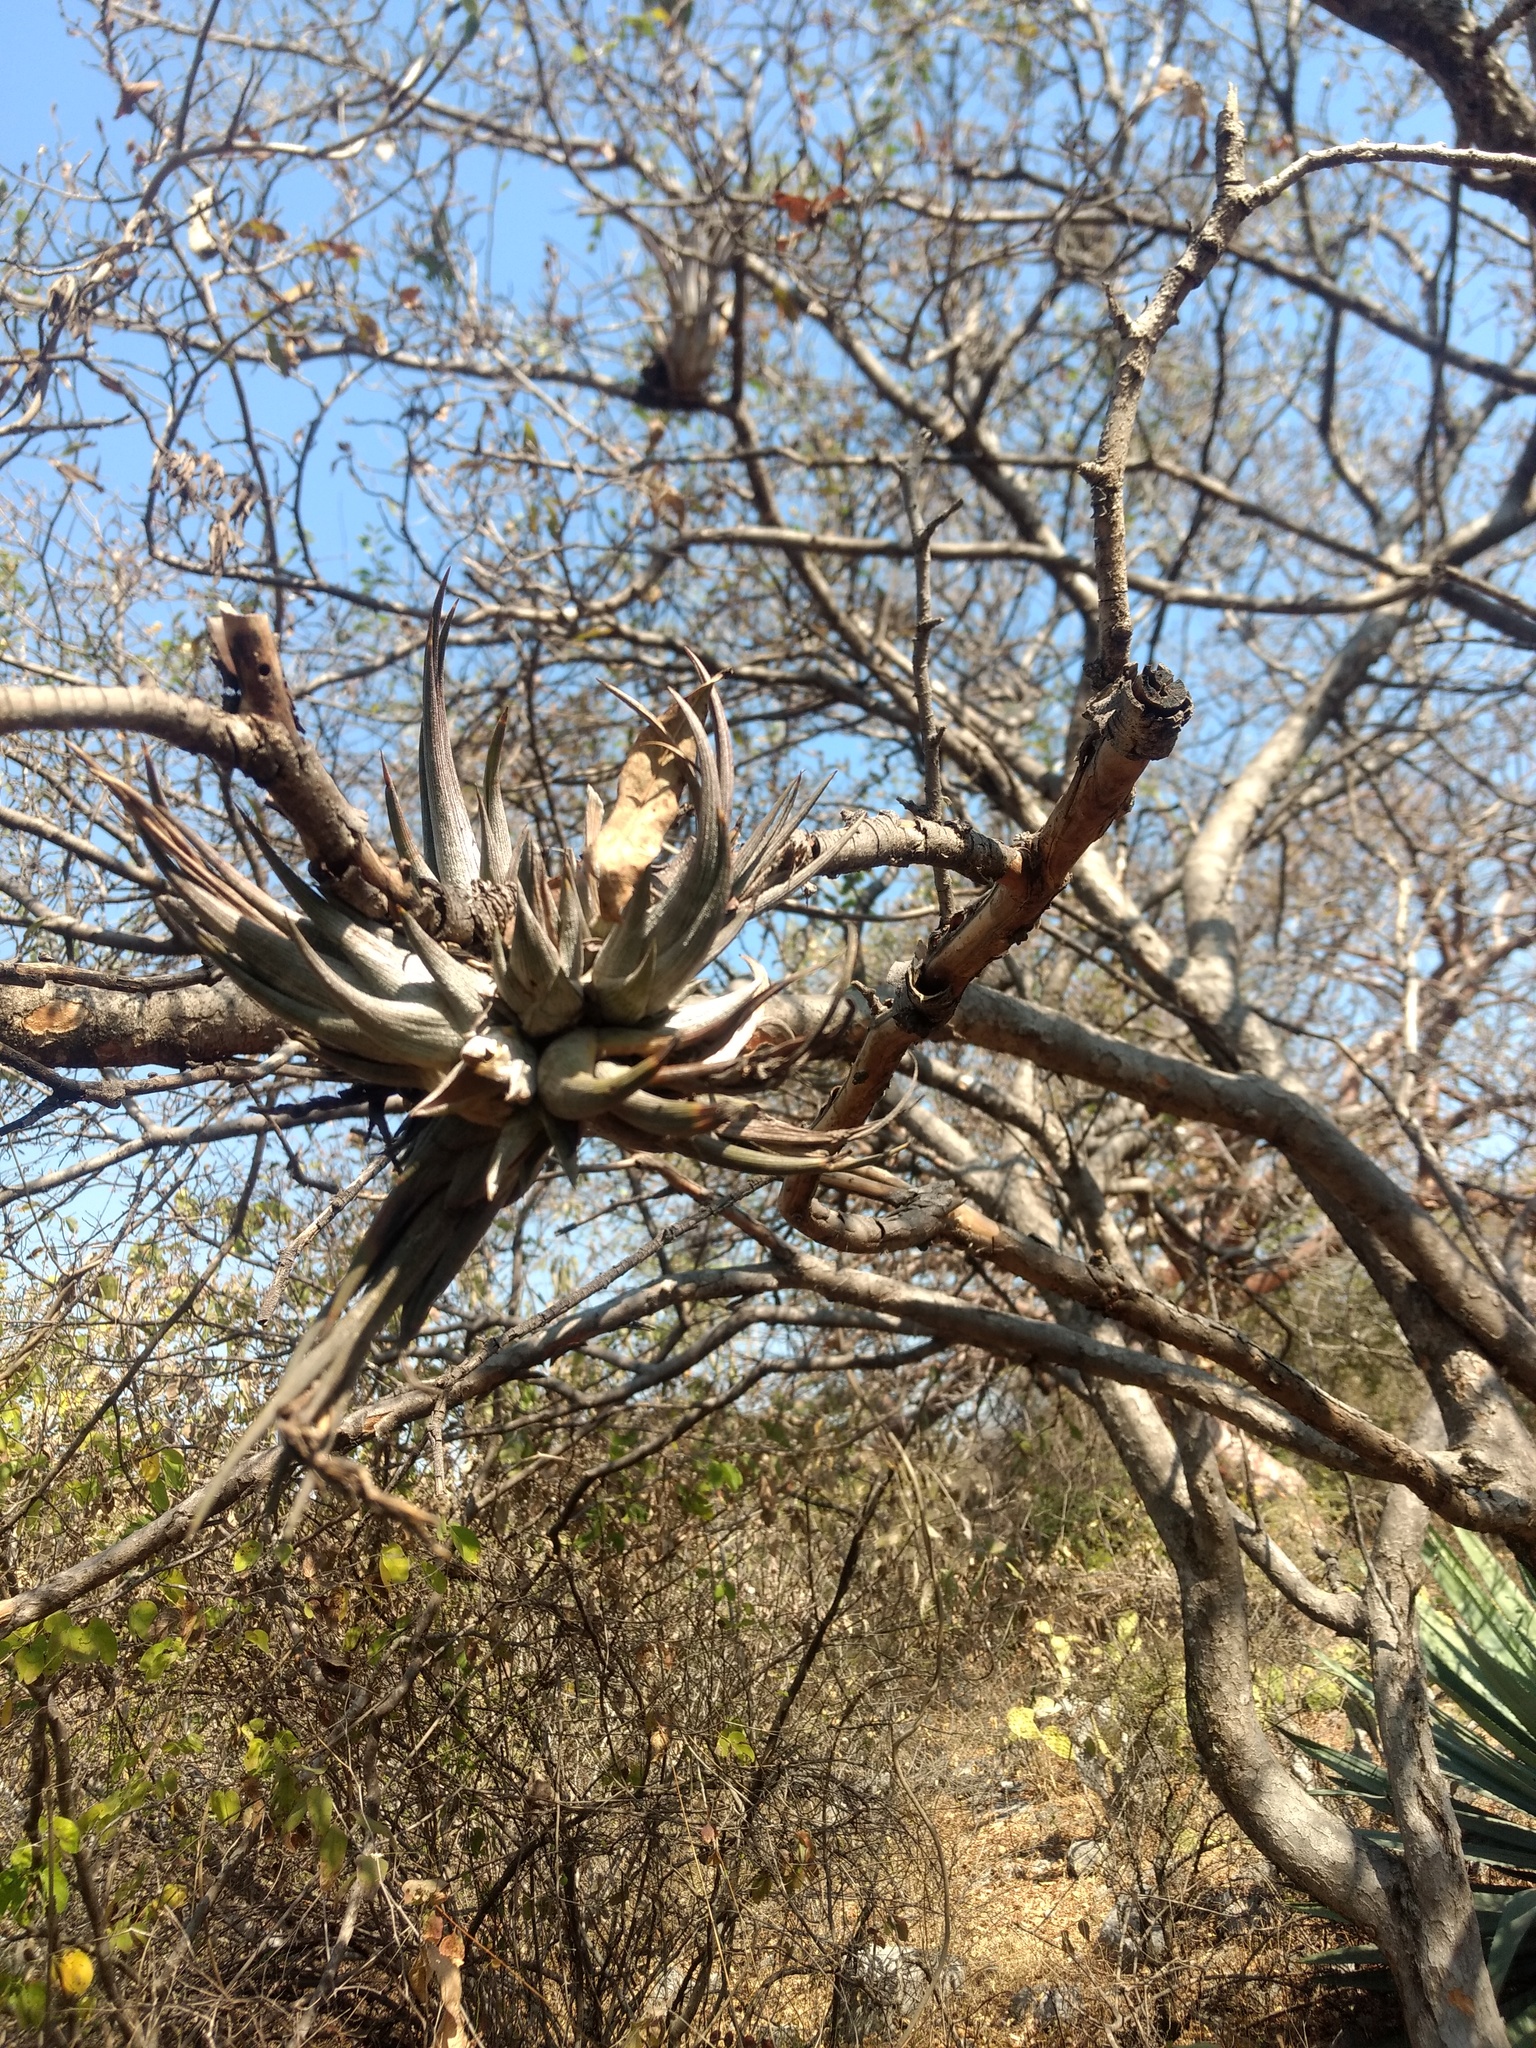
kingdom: Plantae
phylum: Tracheophyta
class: Liliopsida
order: Poales
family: Bromeliaceae
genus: Tillandsia
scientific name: Tillandsia circinnatioides
